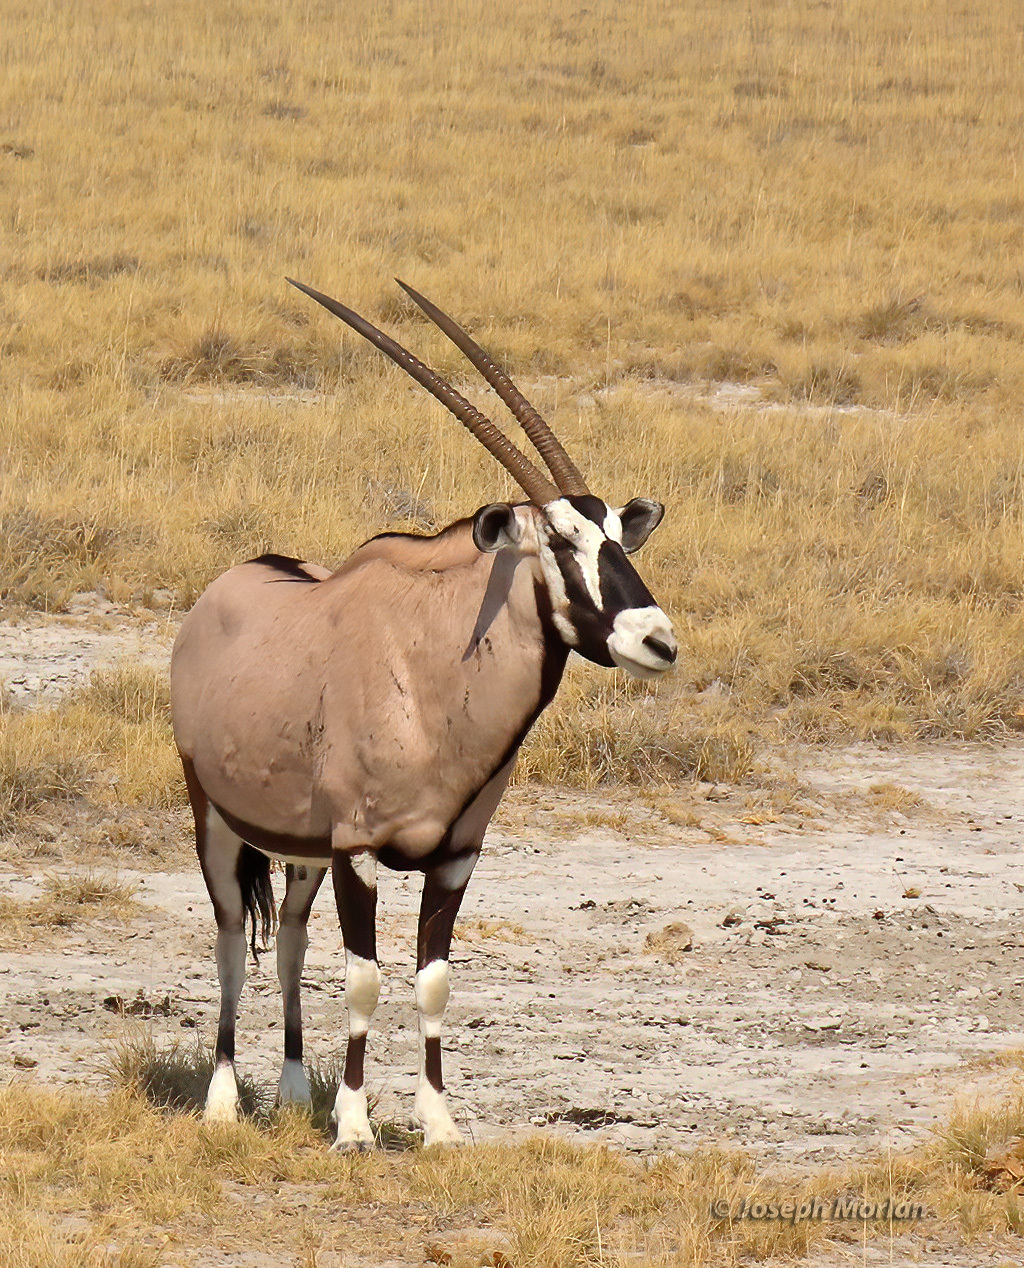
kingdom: Animalia
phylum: Chordata
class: Mammalia
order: Artiodactyla
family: Bovidae
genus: Oryx
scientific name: Oryx gazella
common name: Gemsbok
